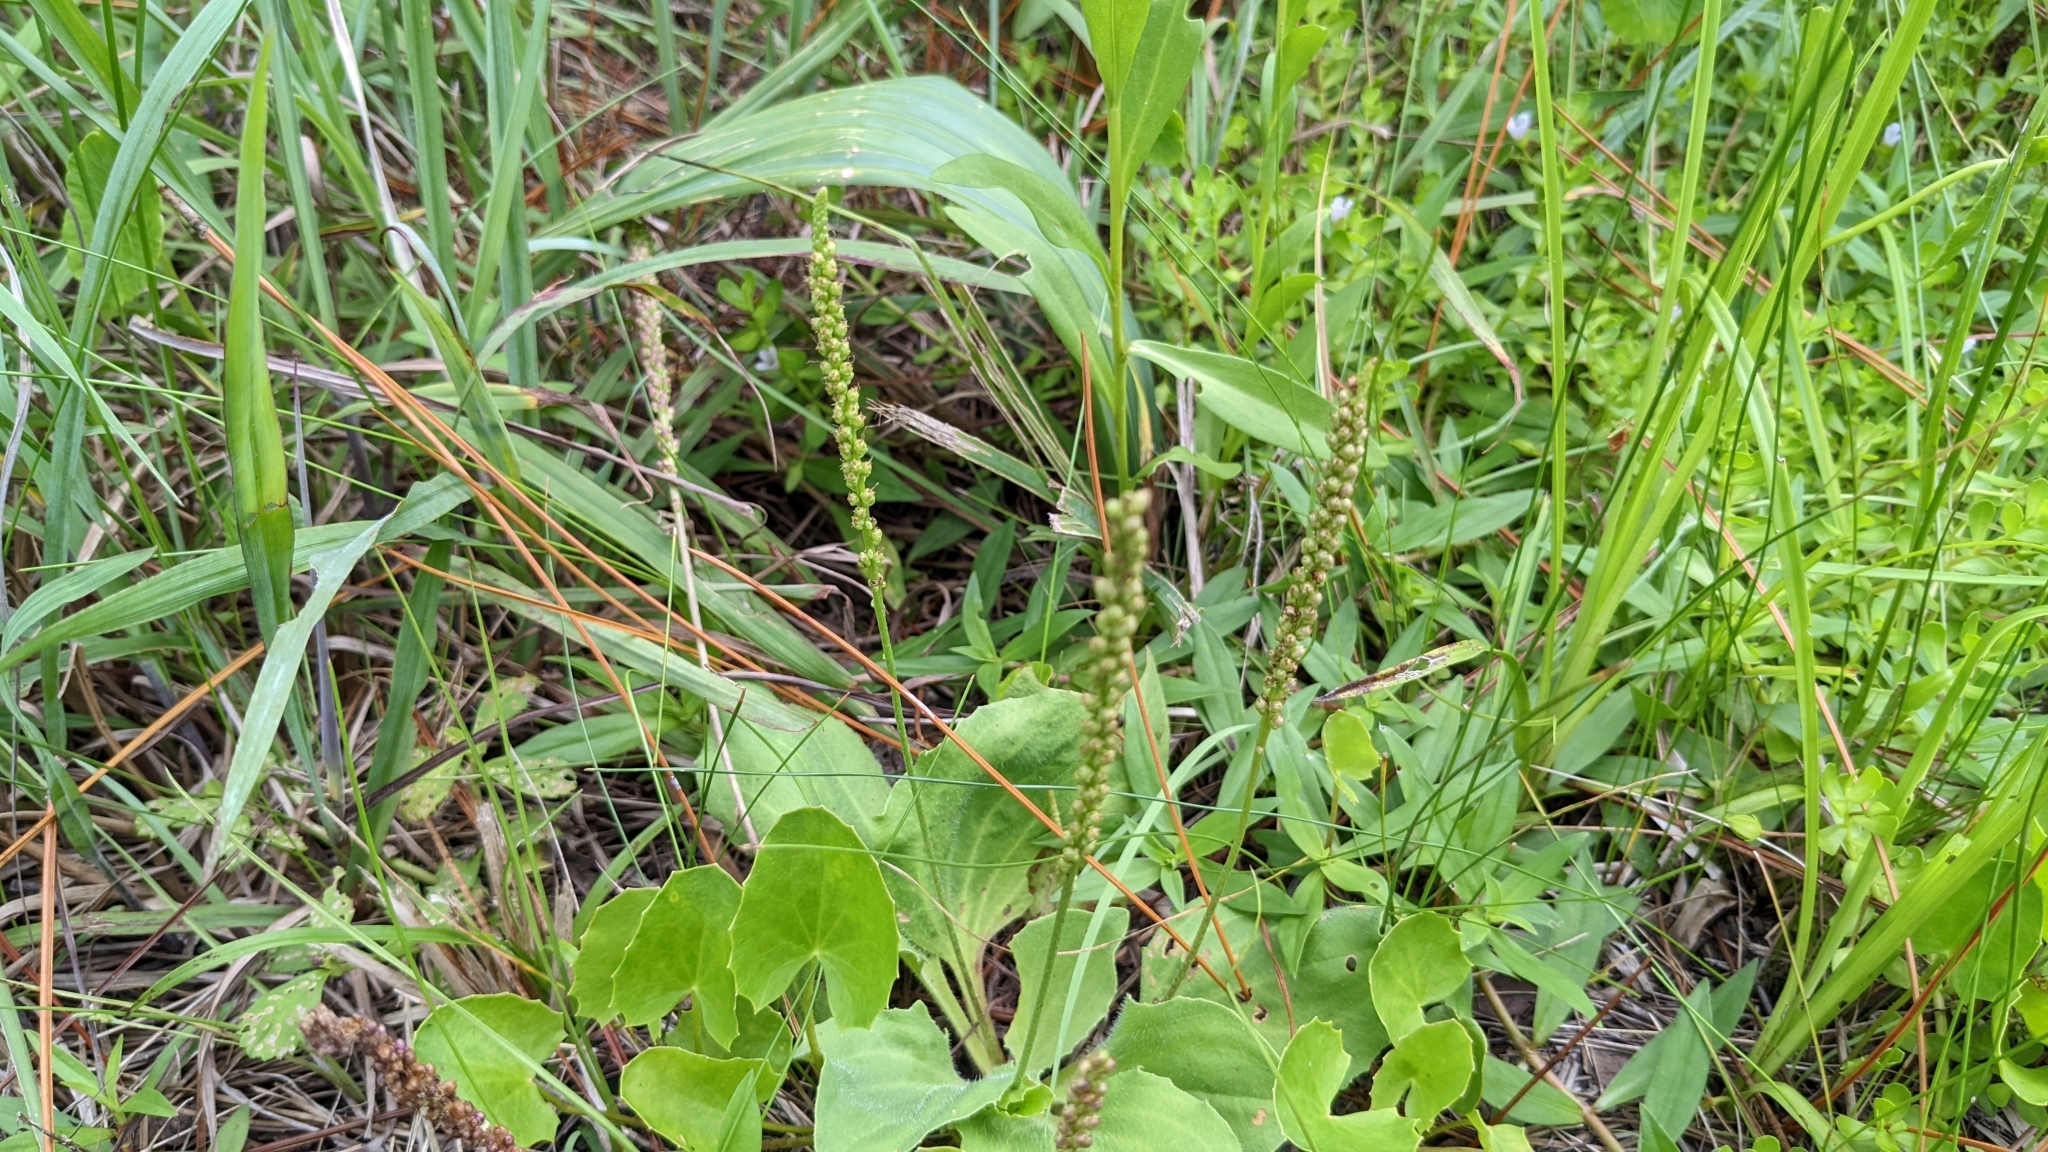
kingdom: Plantae
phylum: Tracheophyta
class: Magnoliopsida
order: Lamiales
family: Plantaginaceae
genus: Plantago
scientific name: Plantago major
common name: Common plantain
